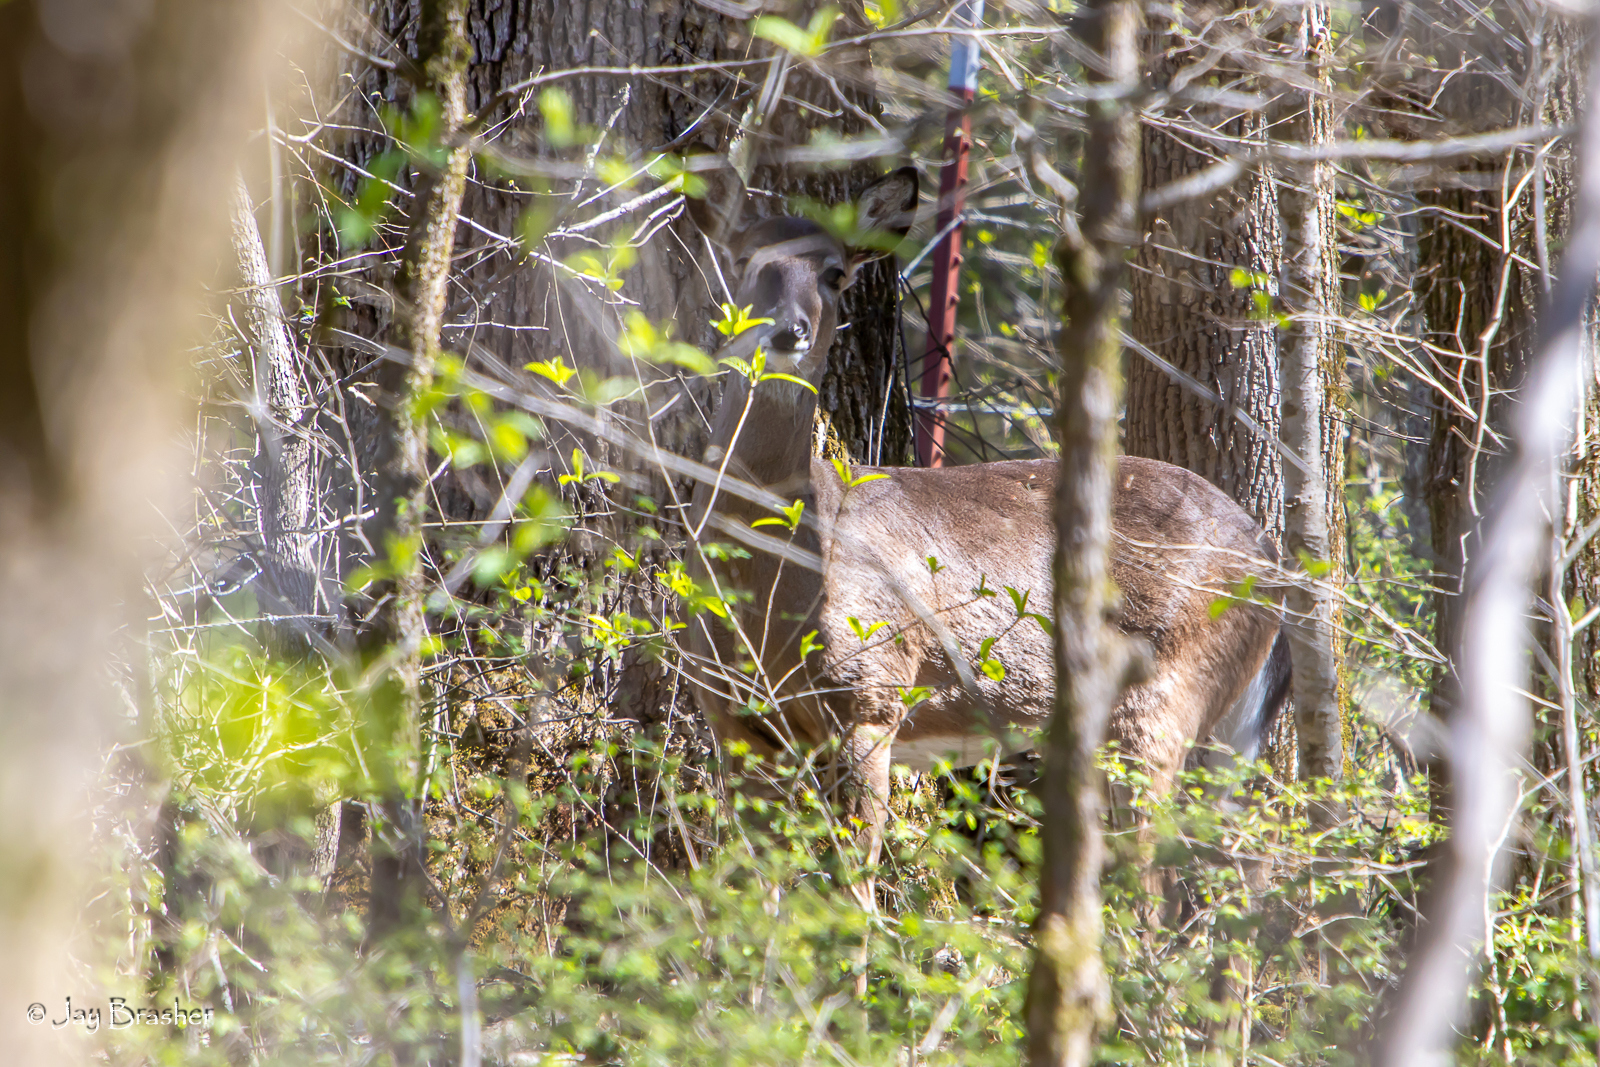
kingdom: Animalia
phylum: Chordata
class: Mammalia
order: Artiodactyla
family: Cervidae
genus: Odocoileus
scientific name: Odocoileus virginianus
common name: White-tailed deer
